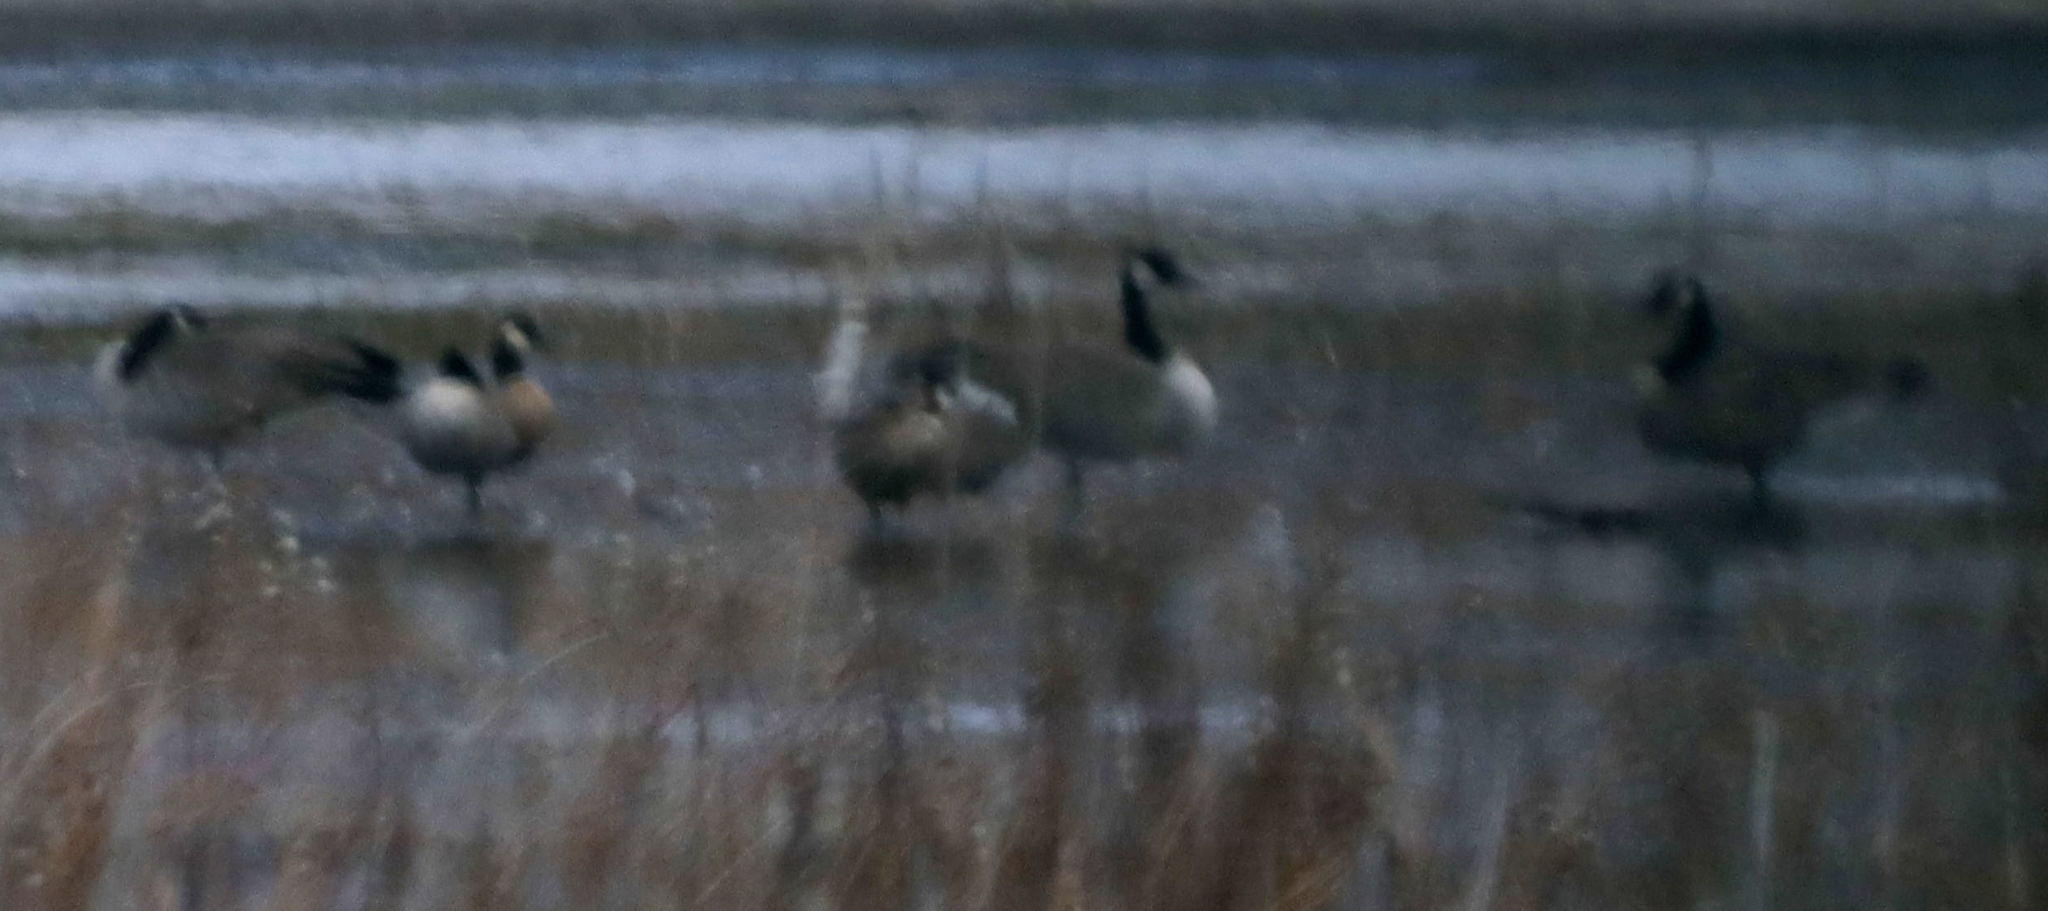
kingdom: Animalia
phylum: Chordata
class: Aves
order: Anseriformes
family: Anatidae
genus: Branta
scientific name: Branta canadensis
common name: Canada goose
